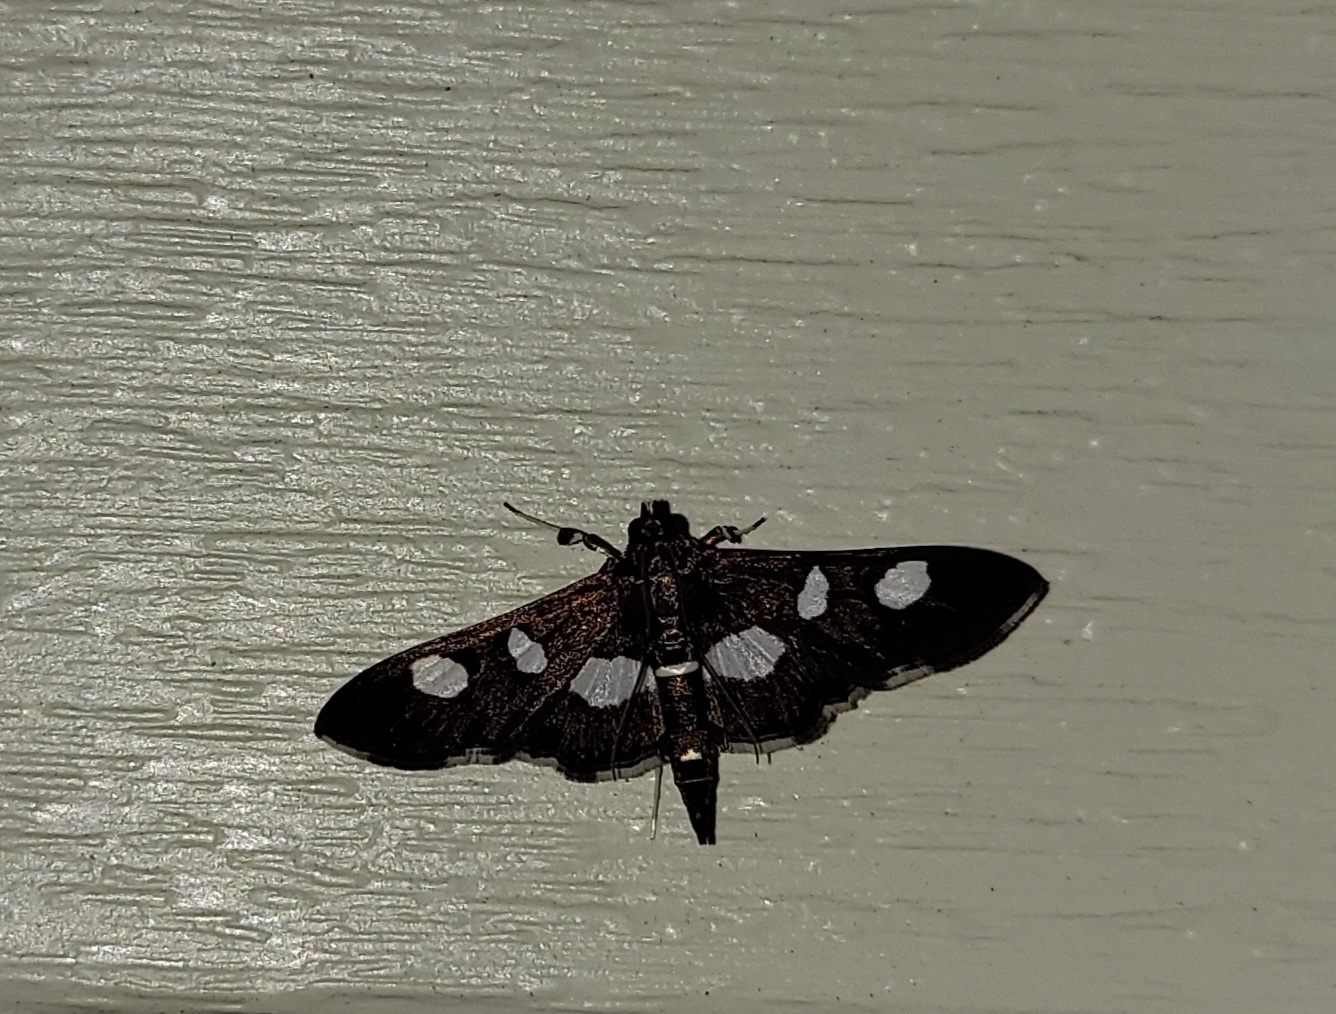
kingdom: Animalia
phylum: Arthropoda
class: Insecta
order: Lepidoptera
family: Crambidae
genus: Desmia
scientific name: Desmia
